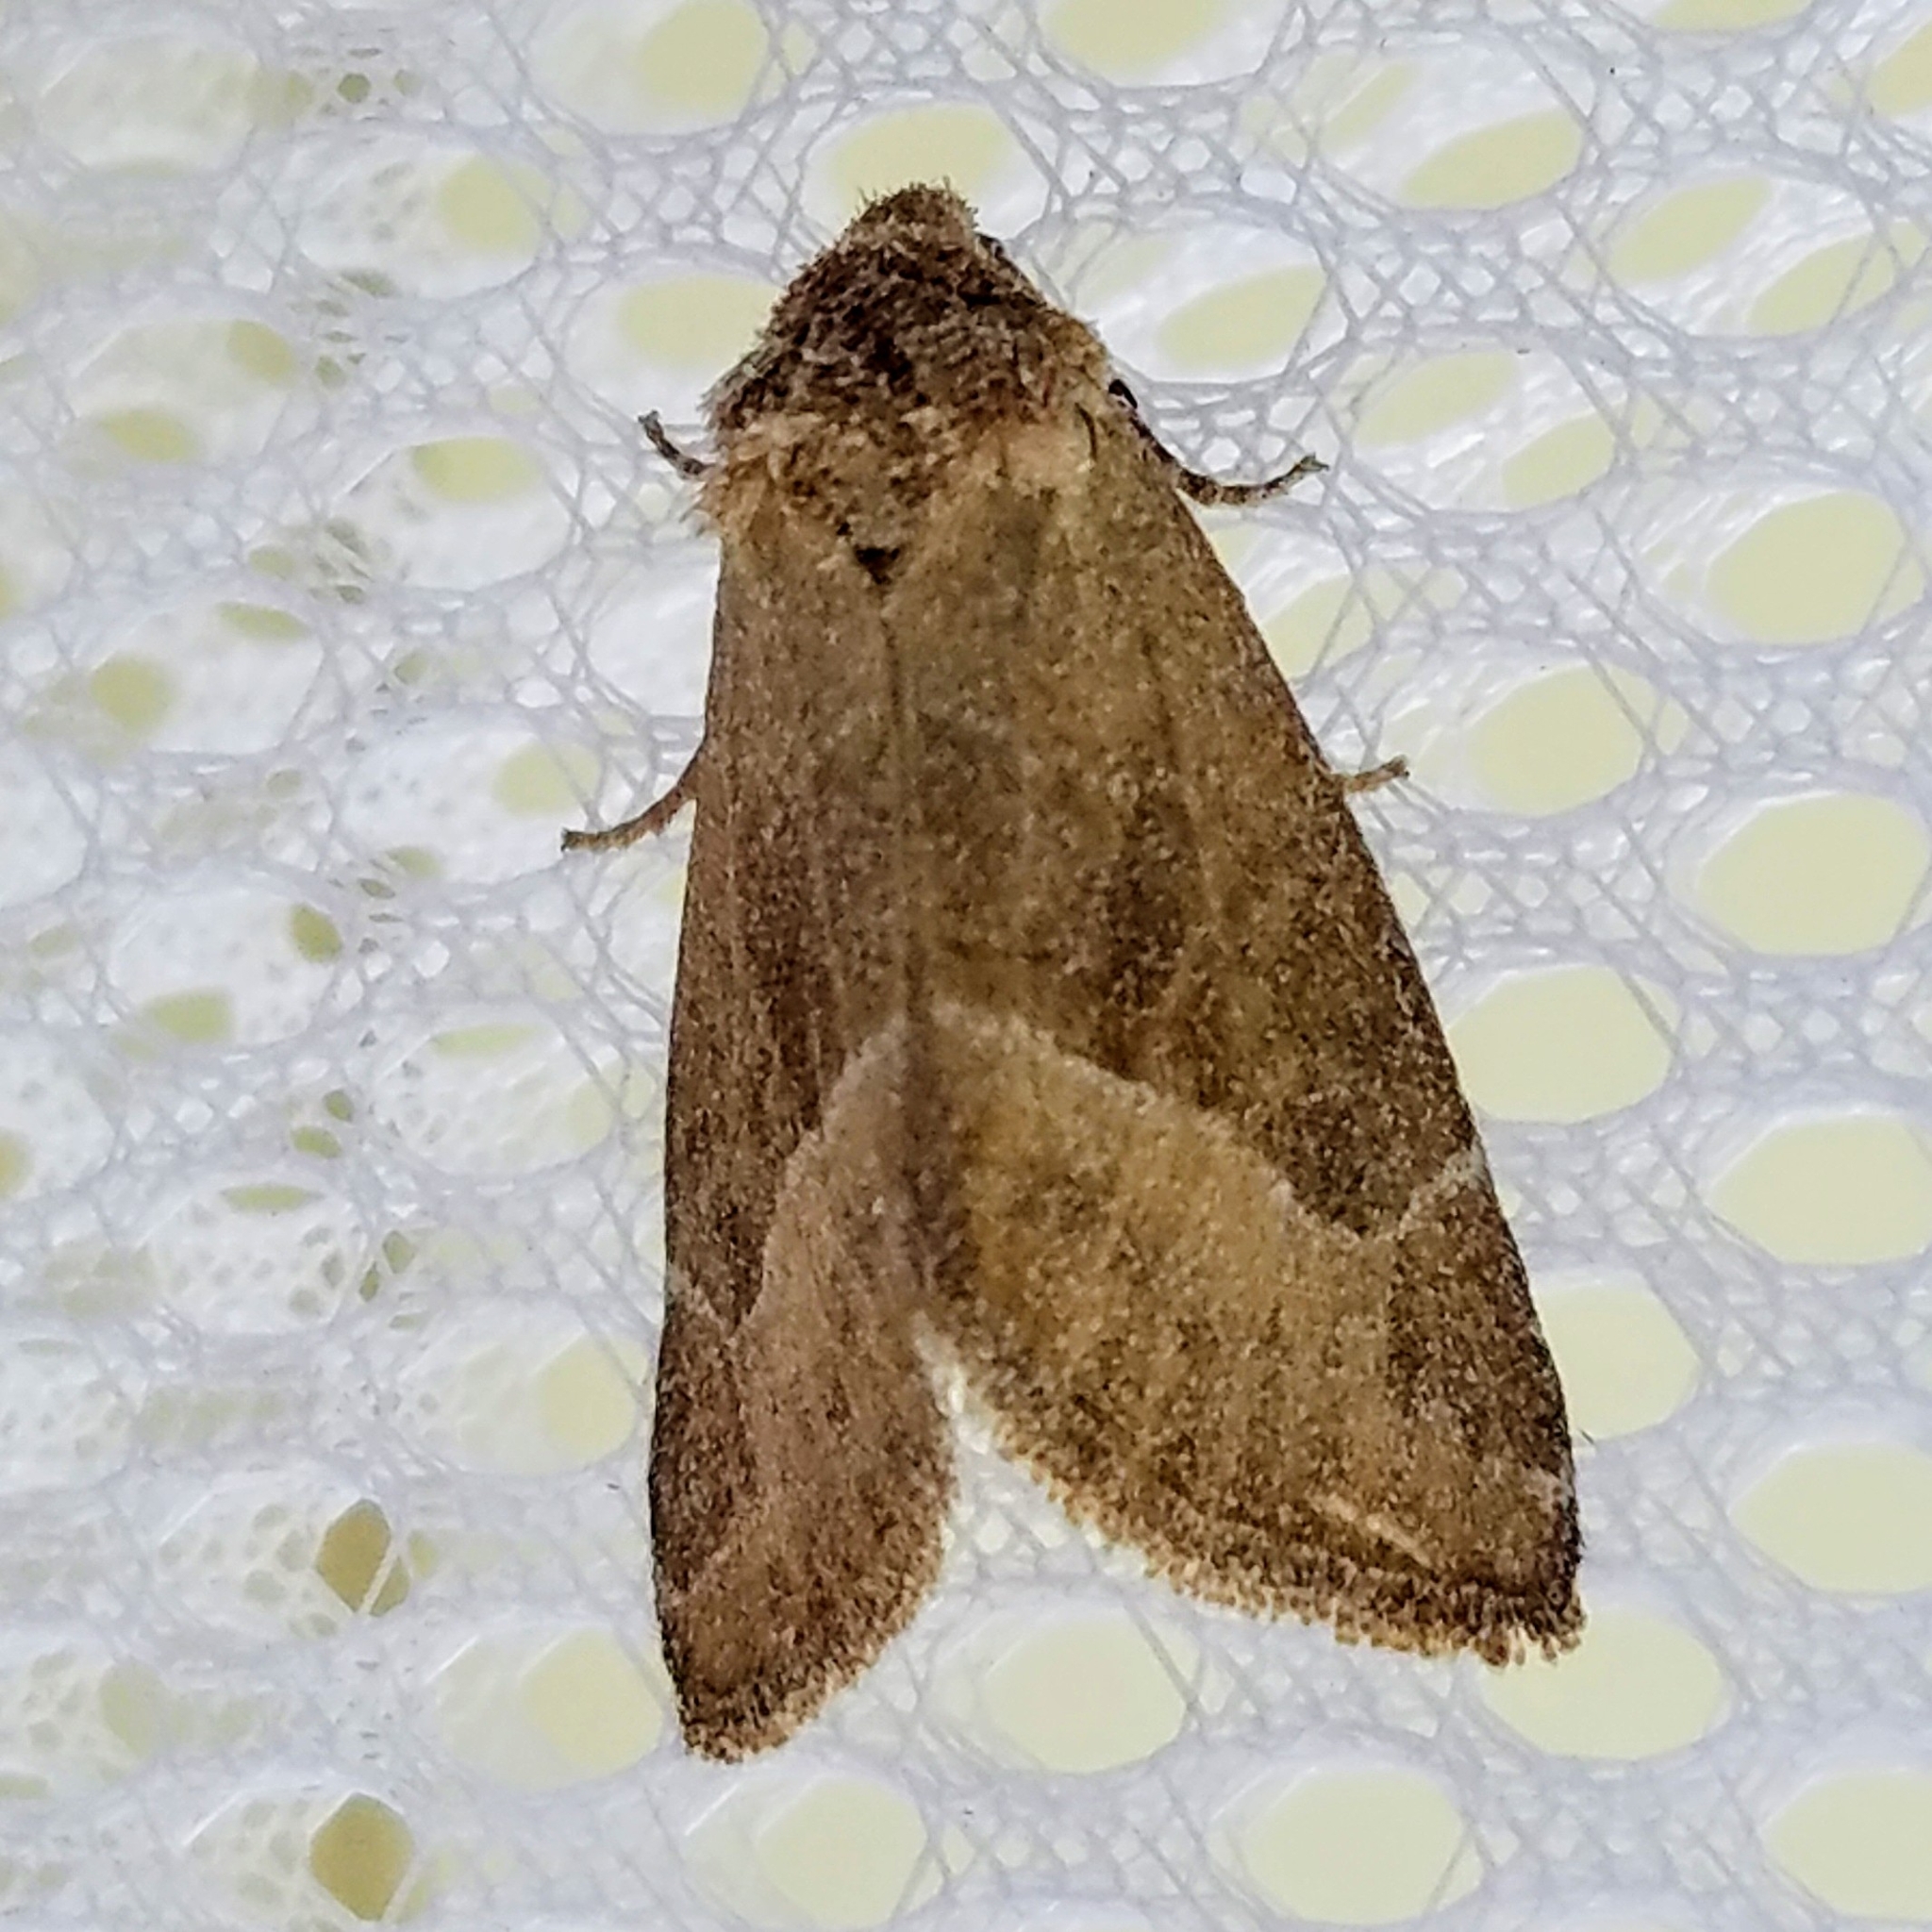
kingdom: Animalia
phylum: Arthropoda
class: Insecta
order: Lepidoptera
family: Noctuidae
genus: Plagiomimicus
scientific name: Plagiomimicus spumosum
